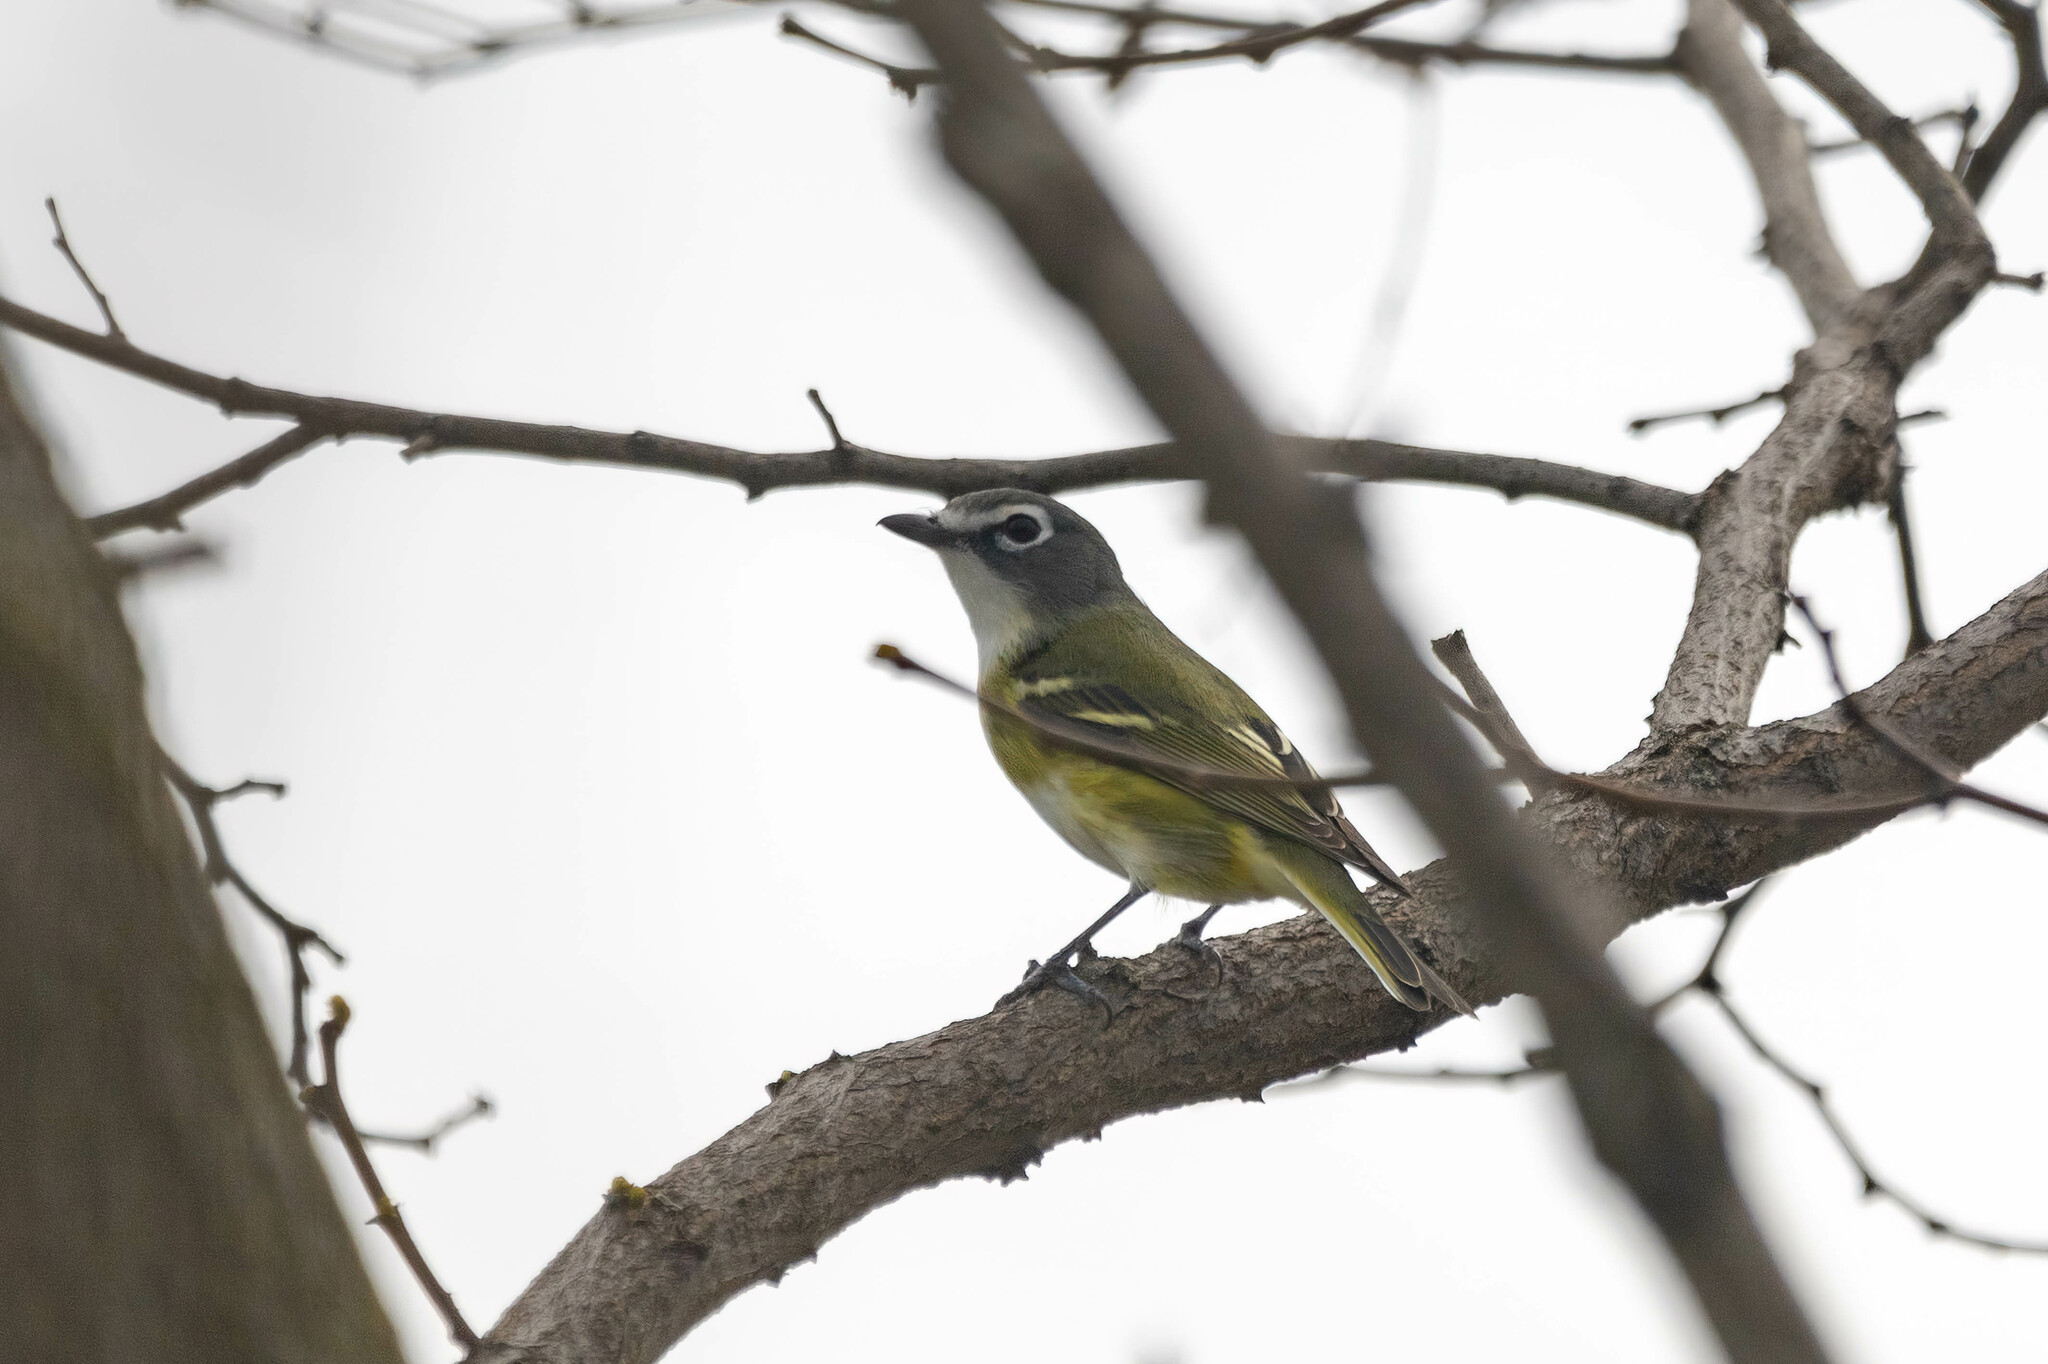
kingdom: Animalia
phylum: Chordata
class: Aves
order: Passeriformes
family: Vireonidae
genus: Vireo
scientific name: Vireo solitarius
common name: Blue-headed vireo
